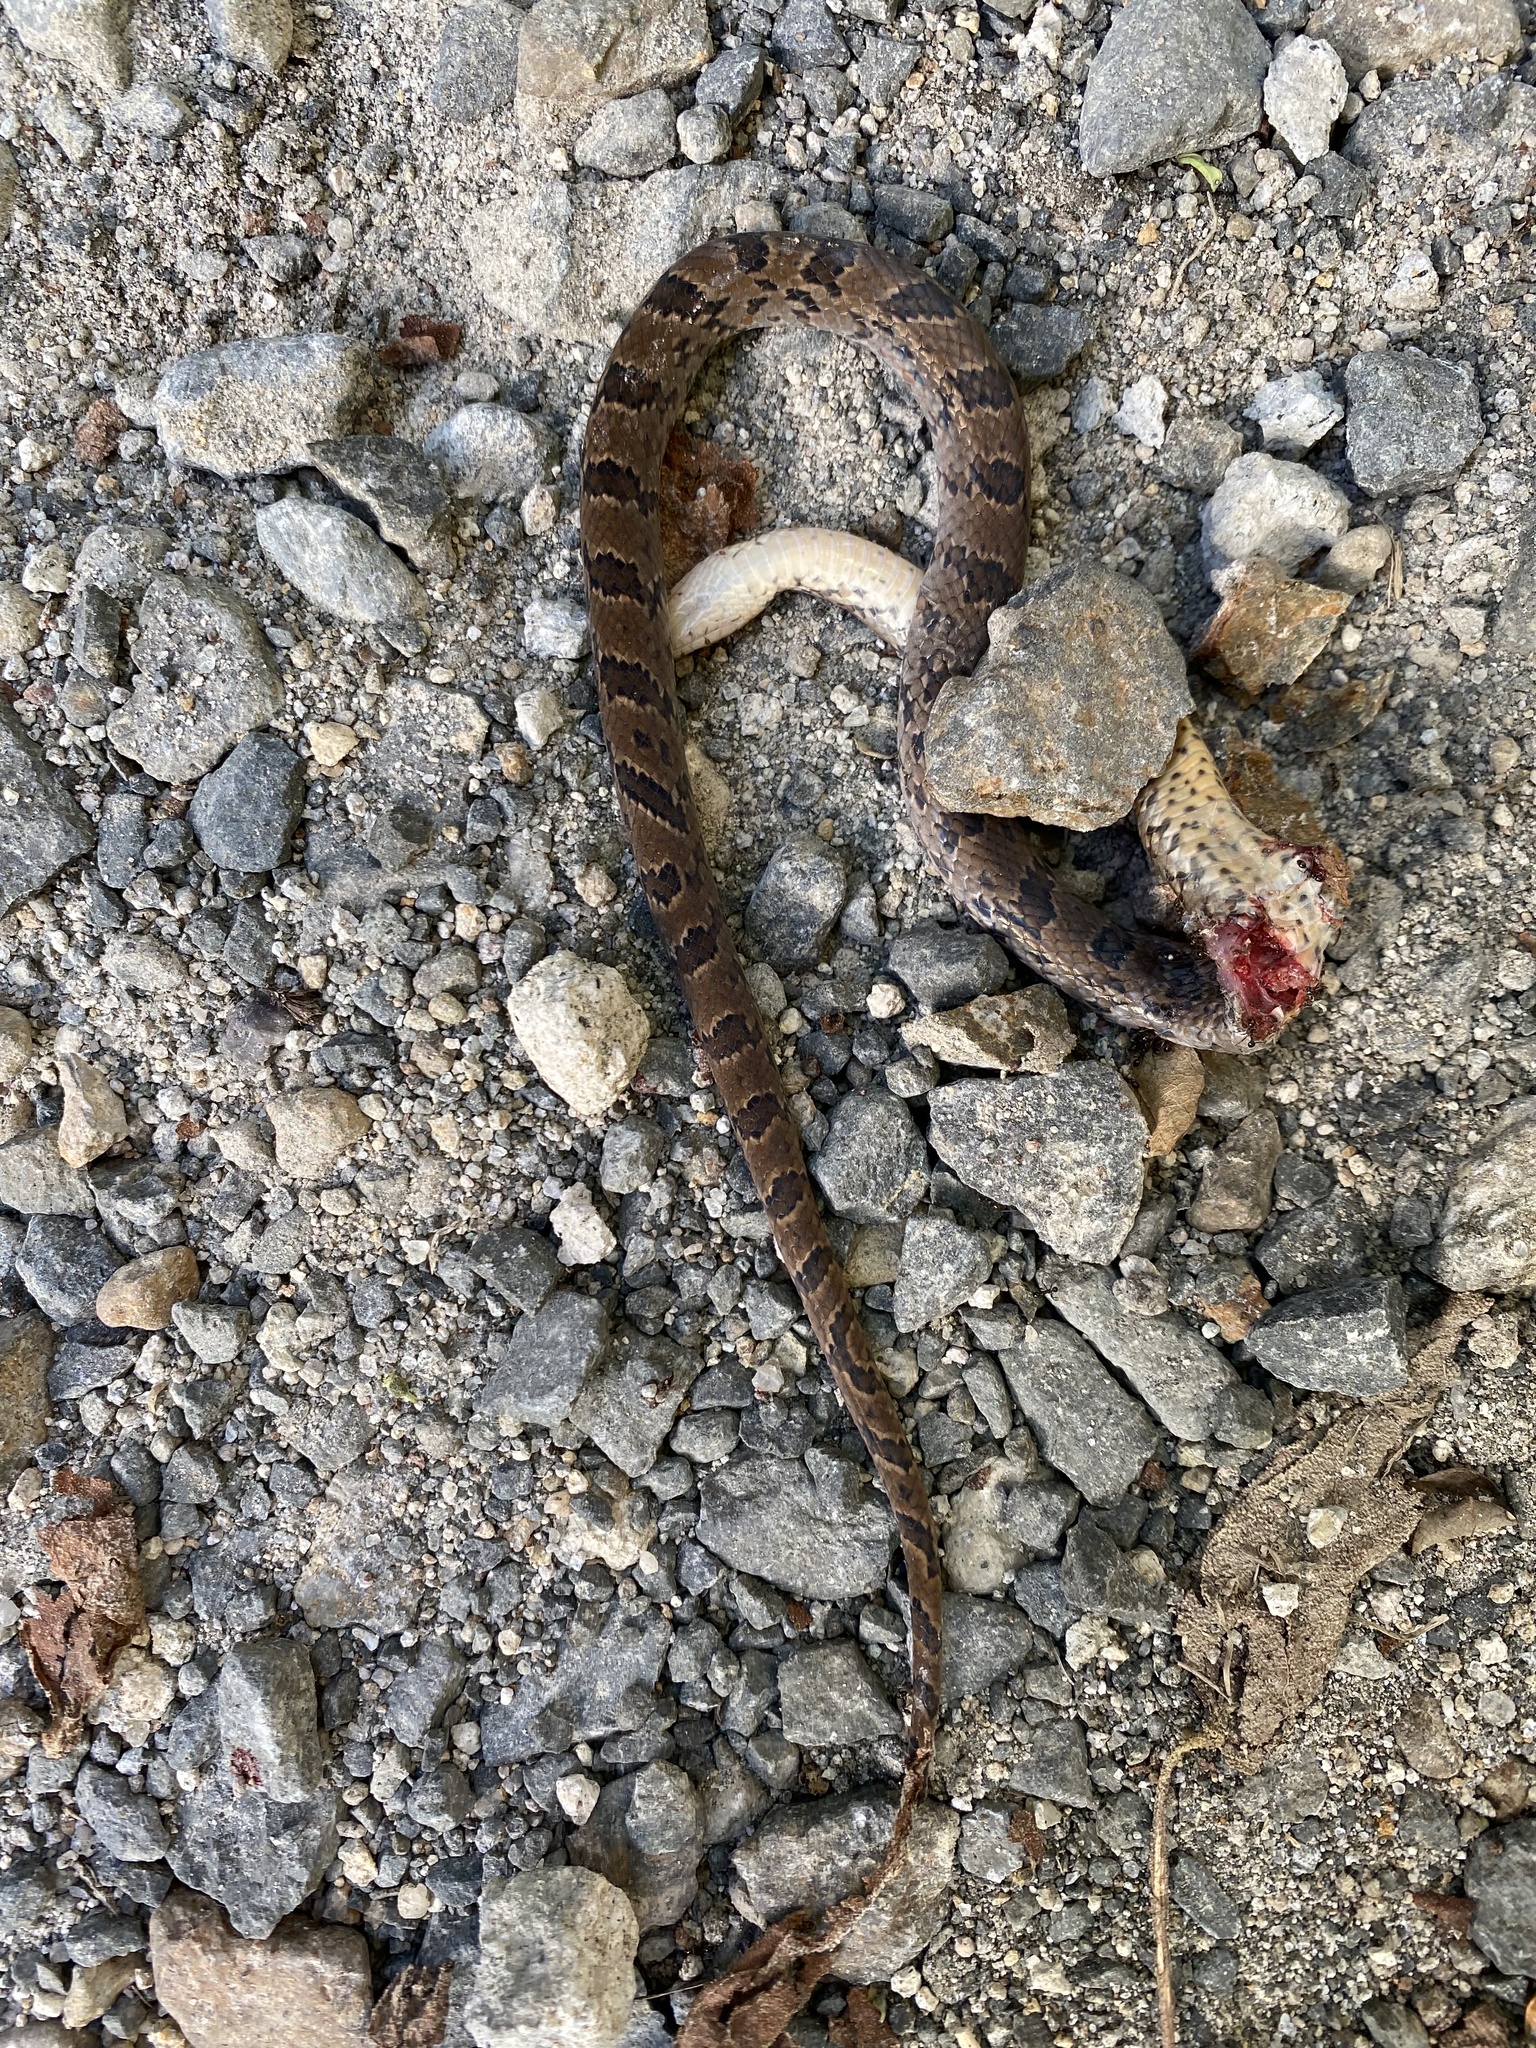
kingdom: Animalia
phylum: Chordata
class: Squamata
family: Colubridae
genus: Stenorrhina
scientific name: Stenorrhina degenhardtii
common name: Degenhardt's scorpion-eating snake
